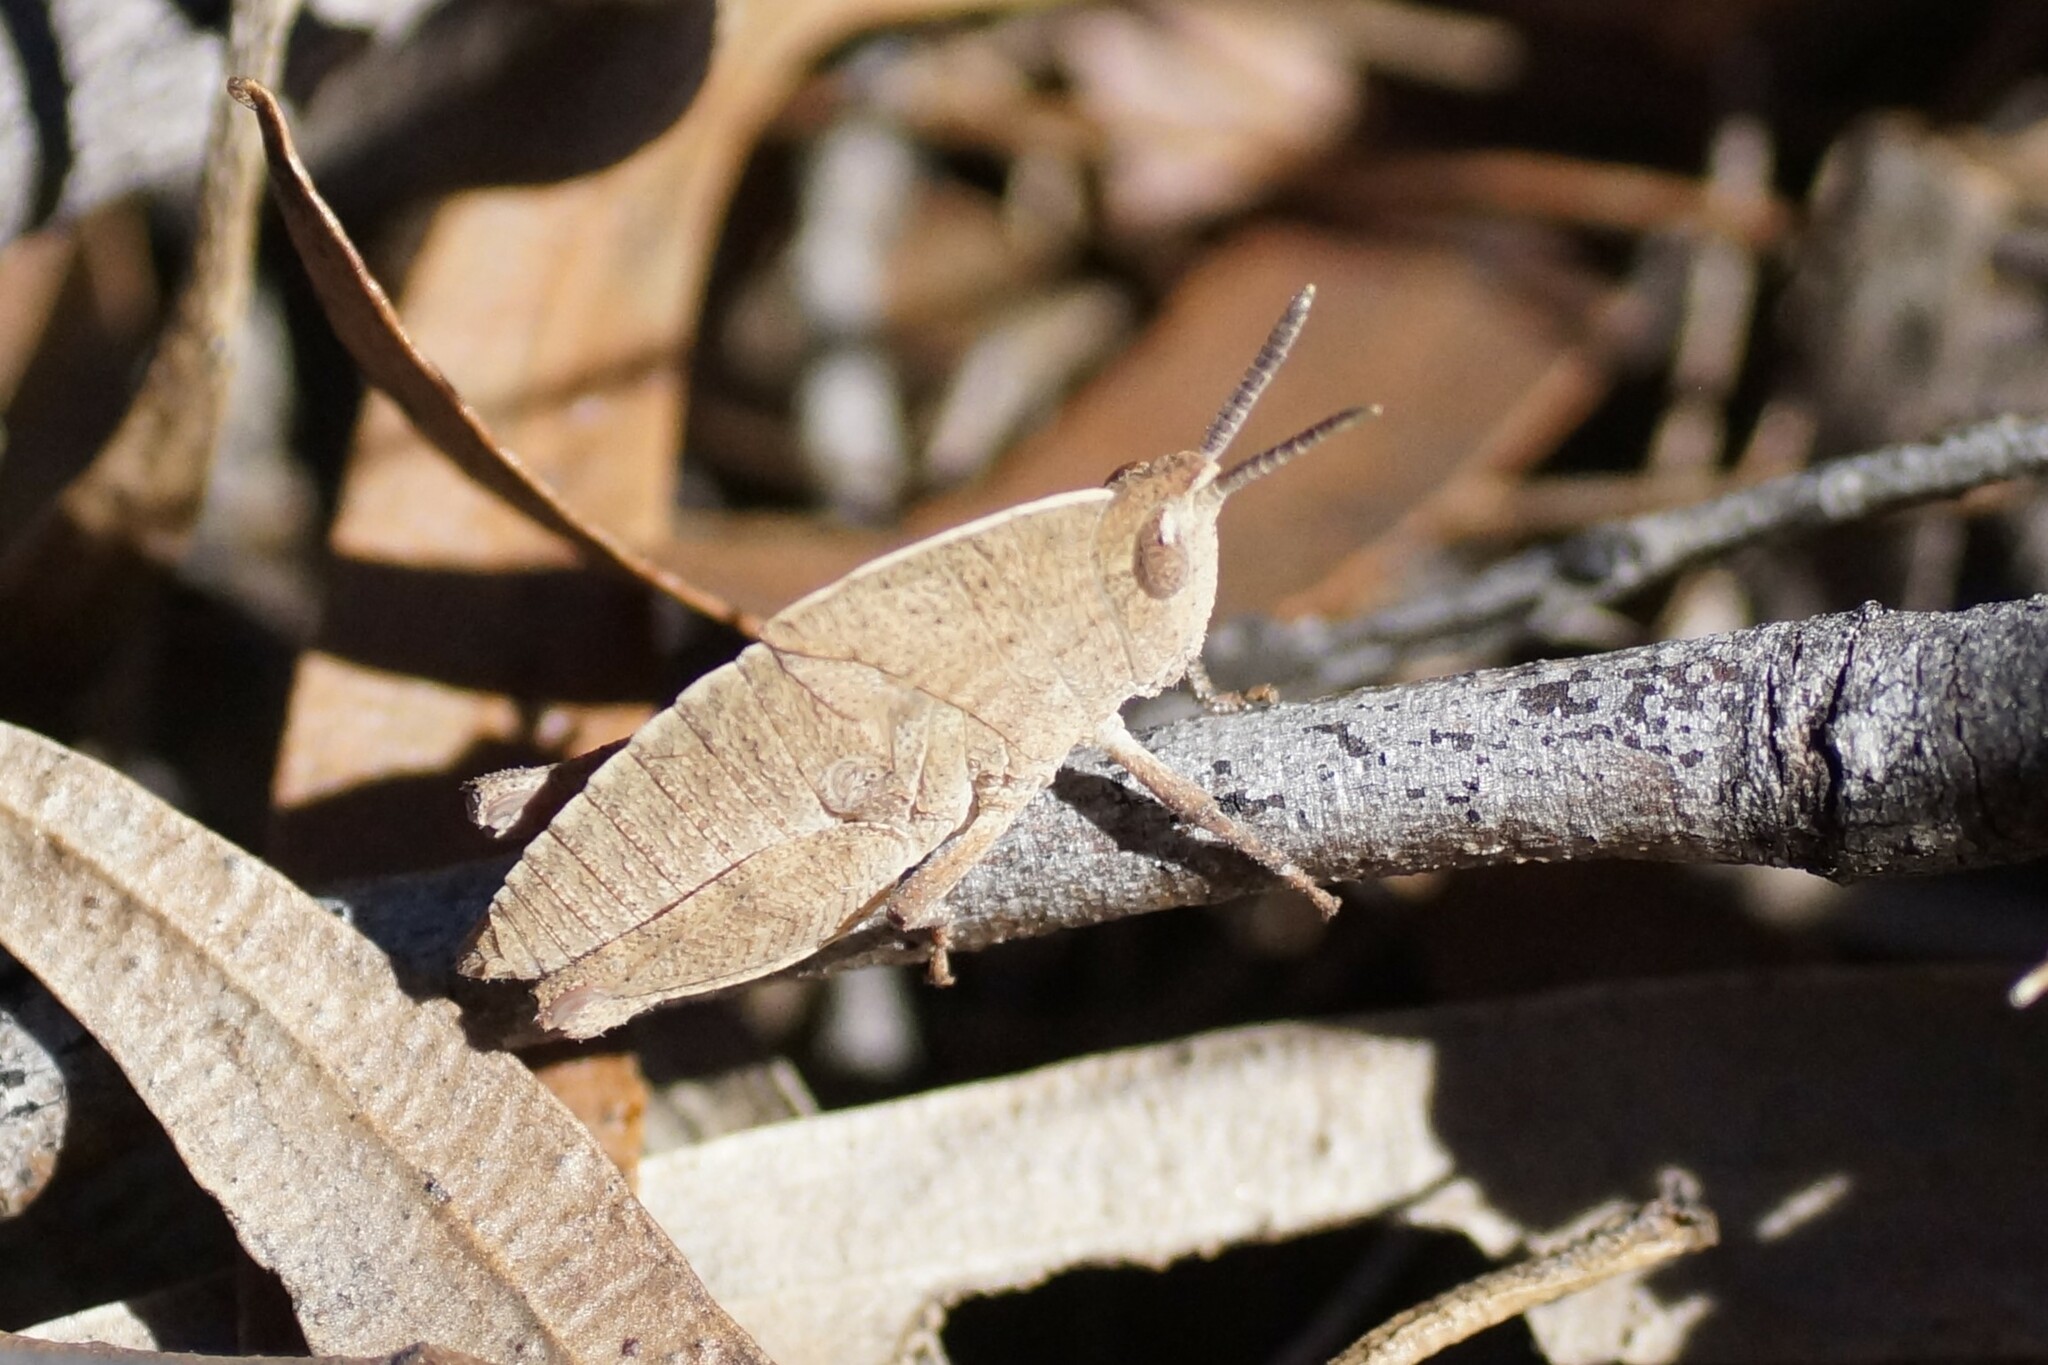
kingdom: Animalia
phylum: Arthropoda
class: Insecta
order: Orthoptera
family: Acrididae
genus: Goniaea
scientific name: Goniaea australasiae
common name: Gumleaf grasshopper
